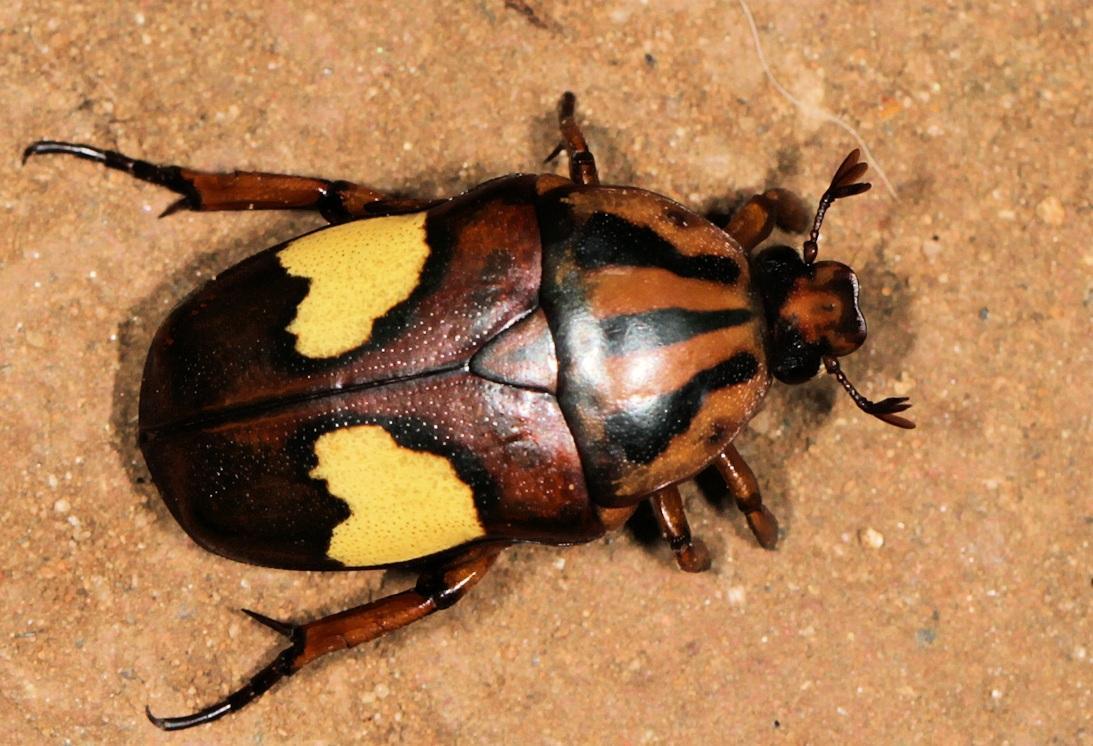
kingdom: Animalia
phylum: Arthropoda
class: Insecta
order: Coleoptera
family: Scarabaeidae
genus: Pedinorrhina
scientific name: Pedinorrhina
